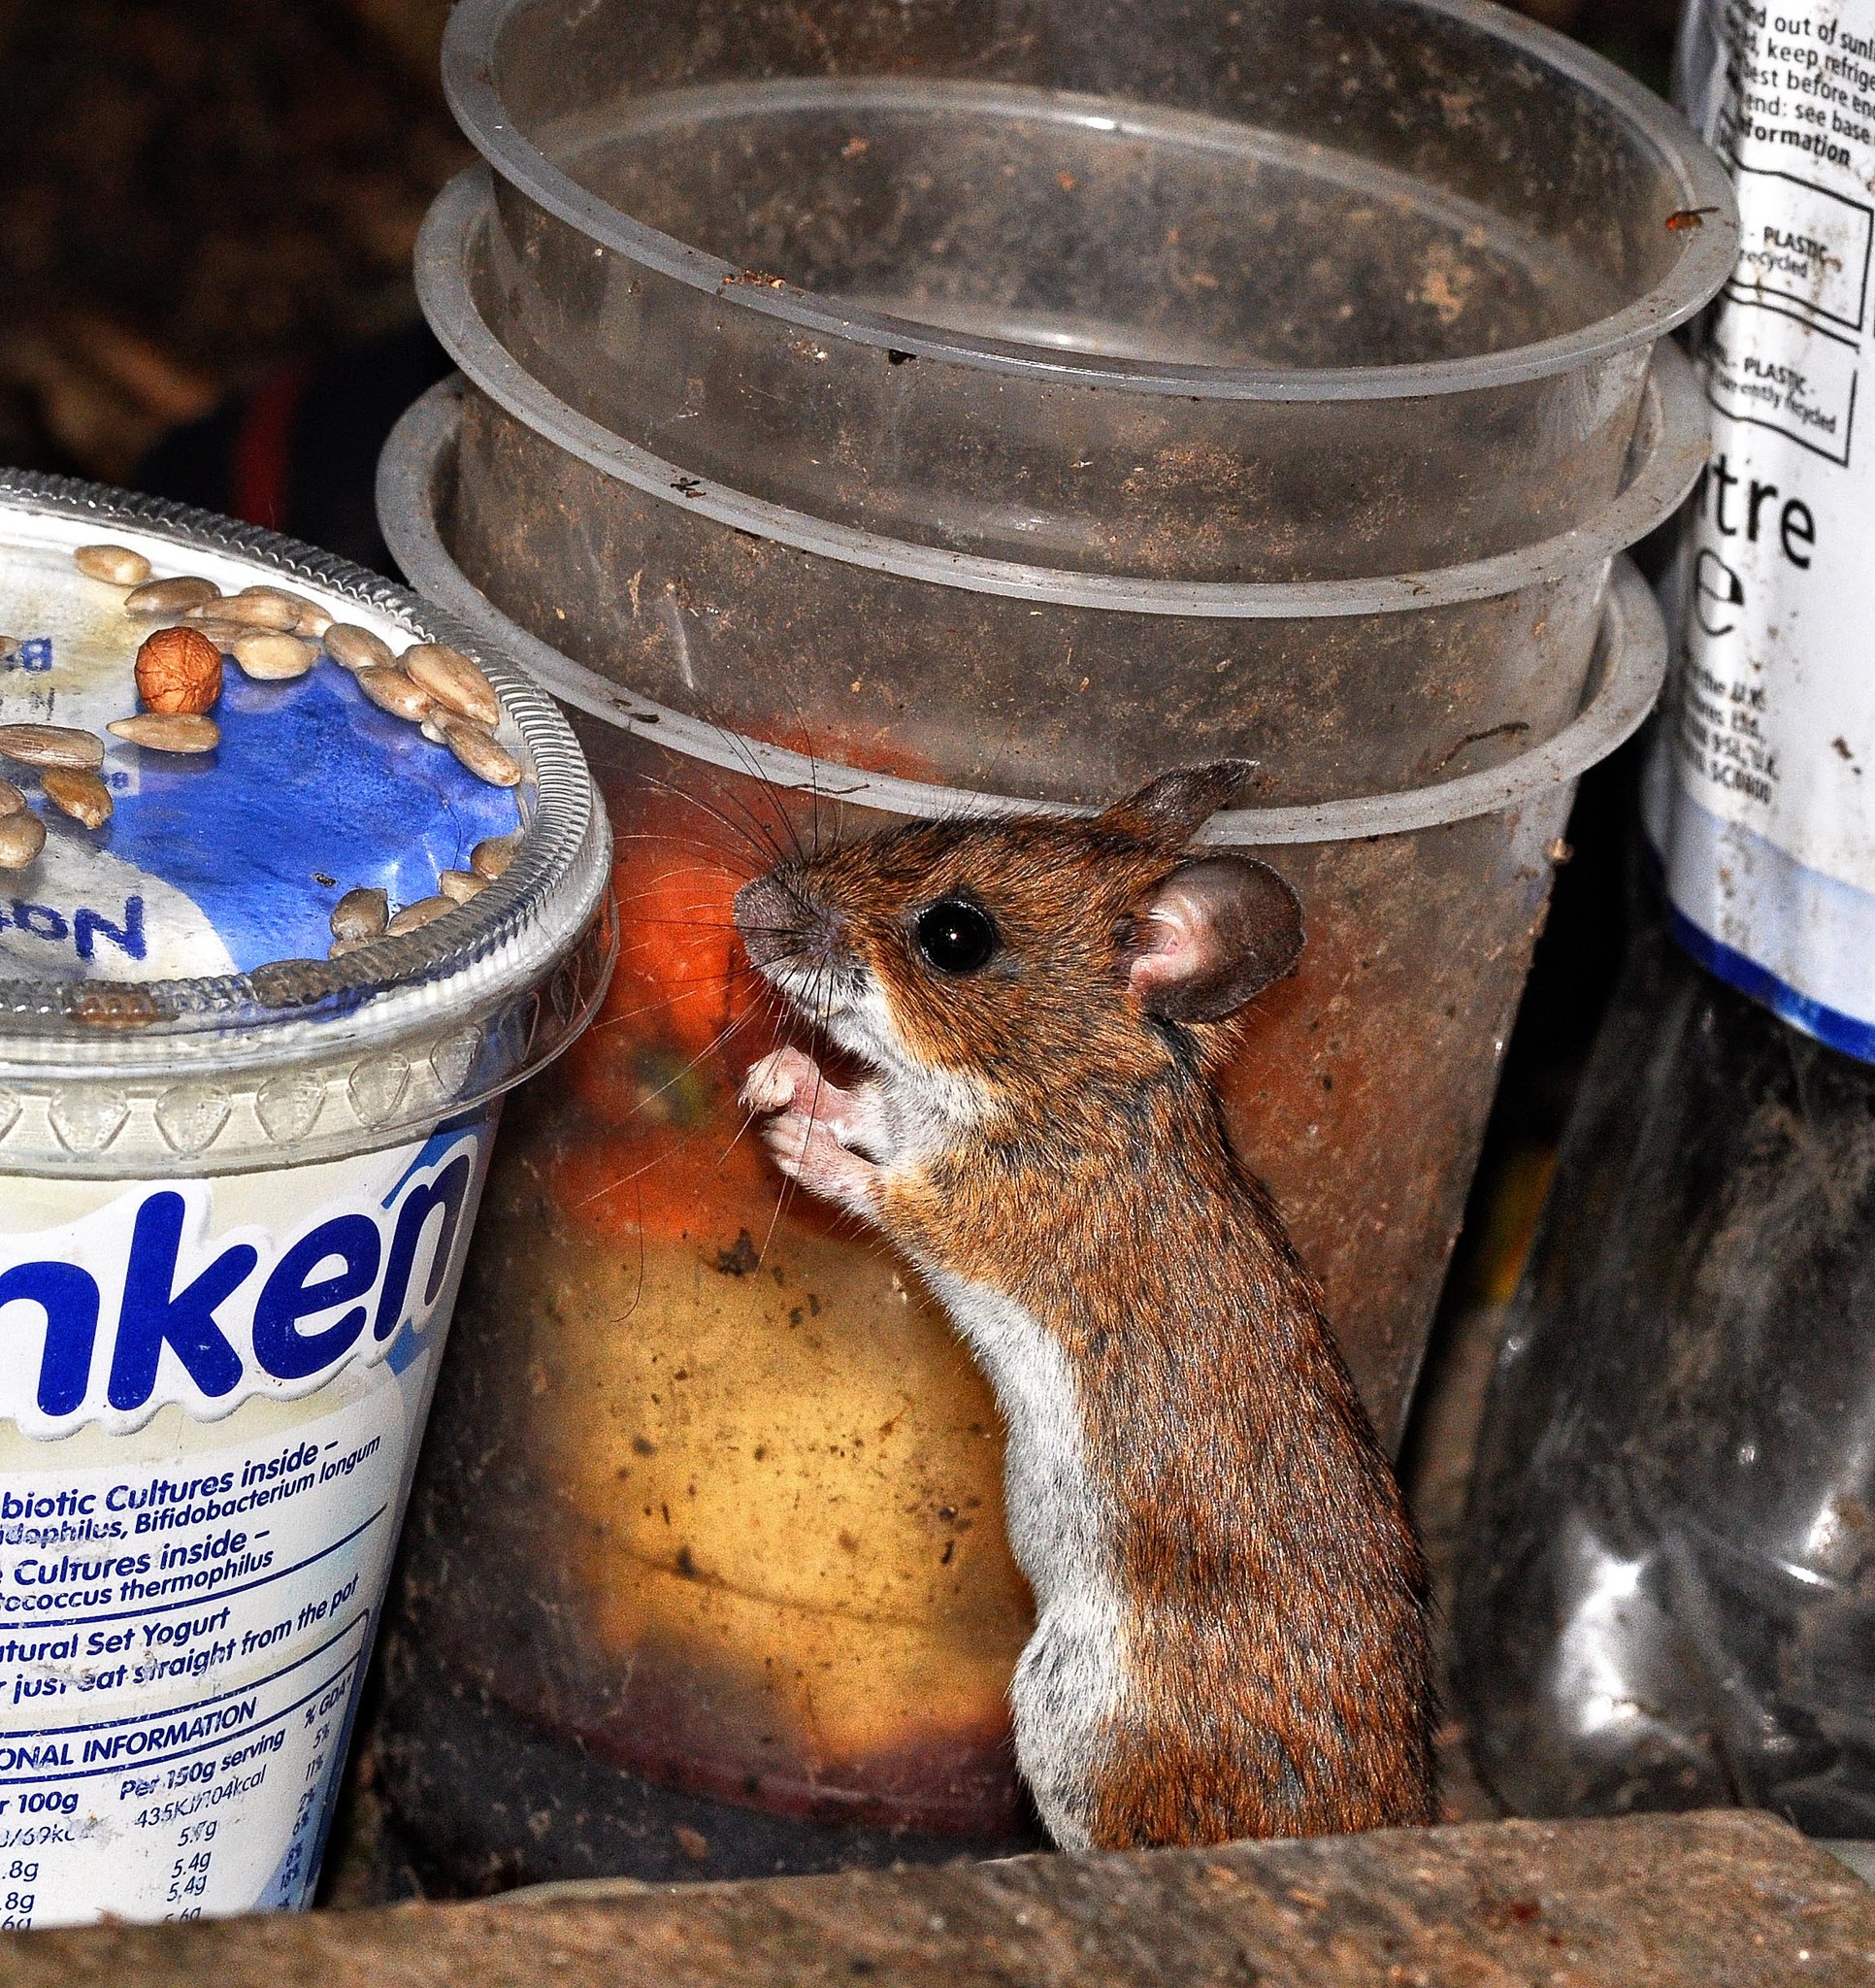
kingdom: Animalia
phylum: Chordata
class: Mammalia
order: Rodentia
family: Muridae
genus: Apodemus
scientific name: Apodemus sylvaticus
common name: Wood mouse
